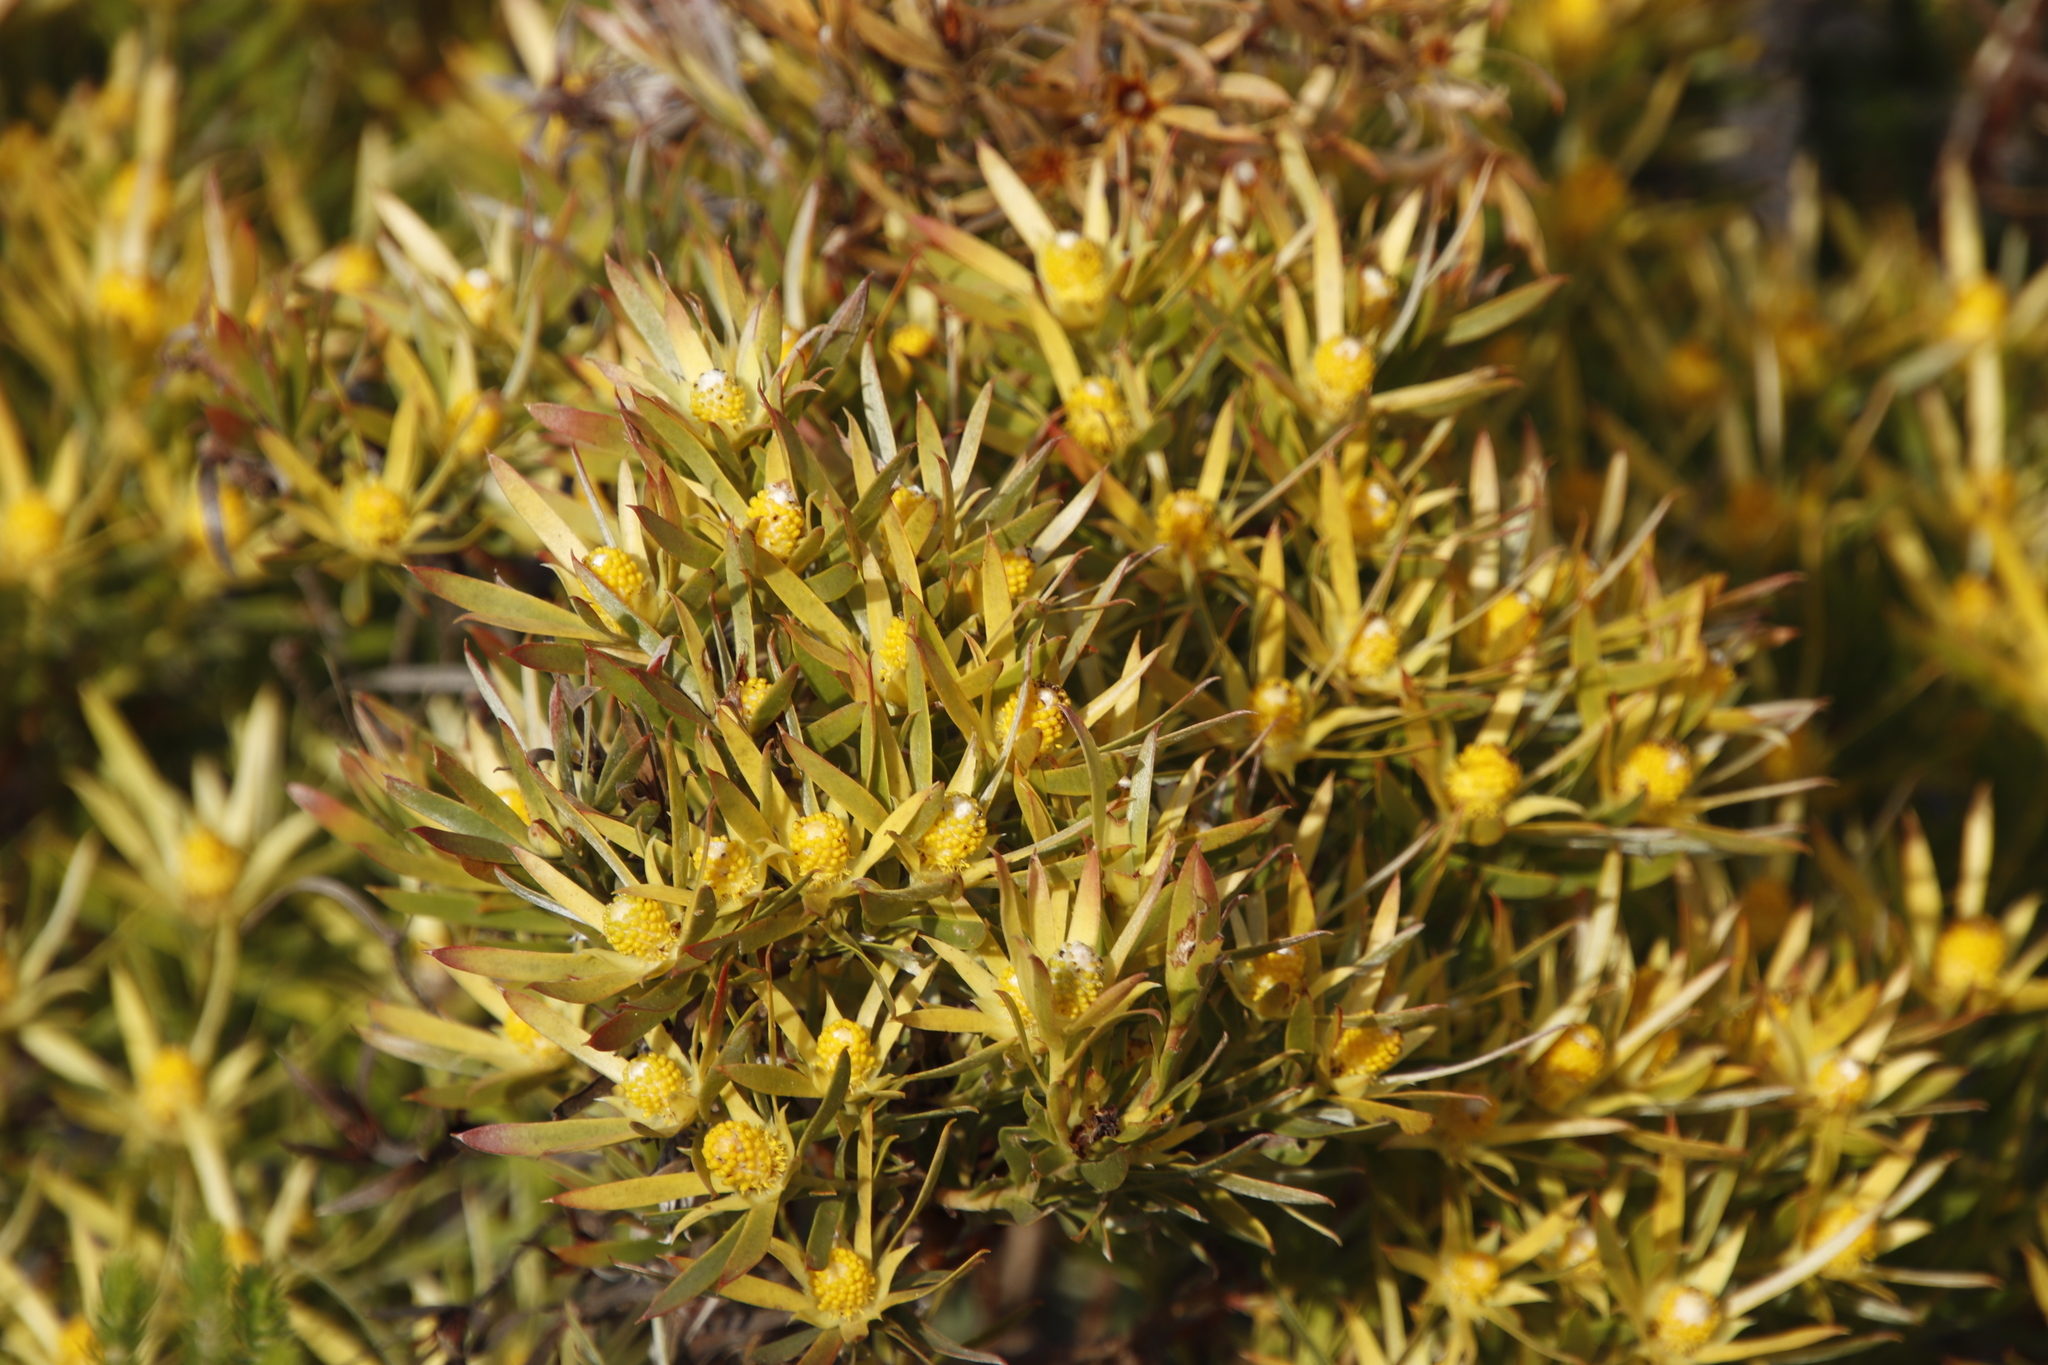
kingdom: Plantae
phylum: Tracheophyta
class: Magnoliopsida
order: Proteales
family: Proteaceae
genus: Leucadendron
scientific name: Leucadendron salignum
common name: Common sunshine conebush
